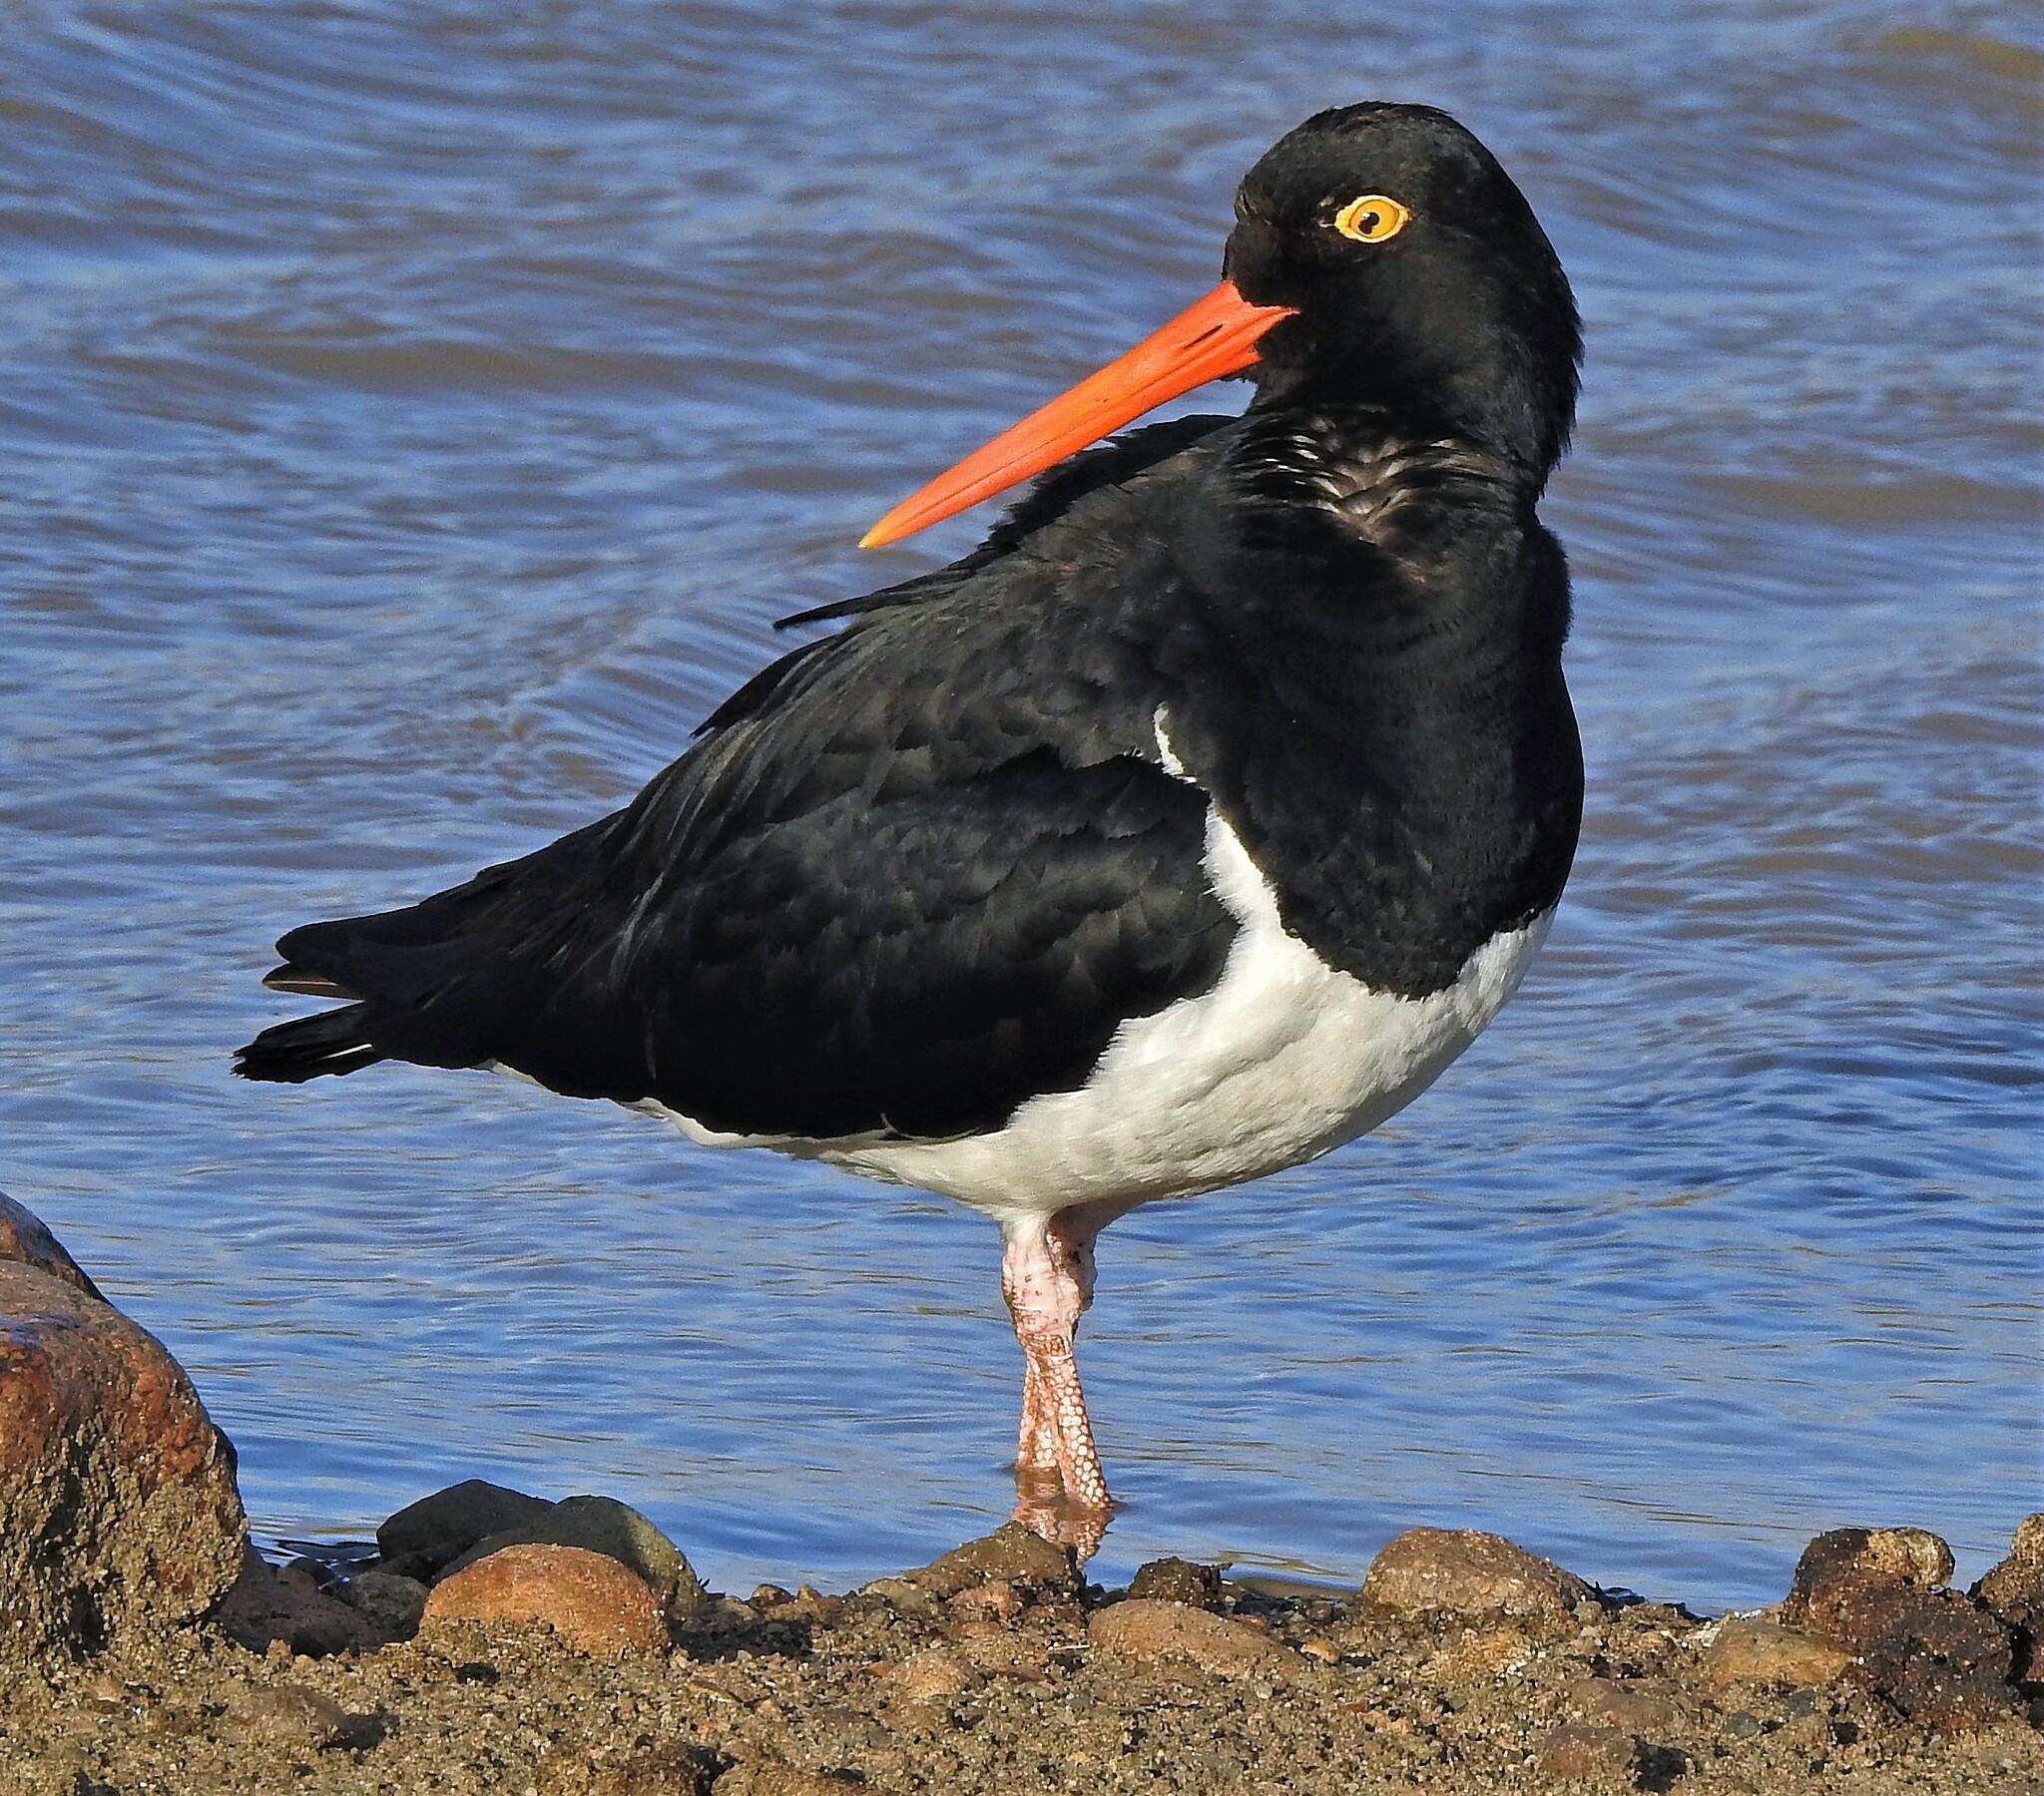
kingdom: Animalia
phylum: Chordata
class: Aves
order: Charadriiformes
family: Haematopodidae
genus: Haematopus
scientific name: Haematopus leucopodus
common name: Magellanic oystercatcher
